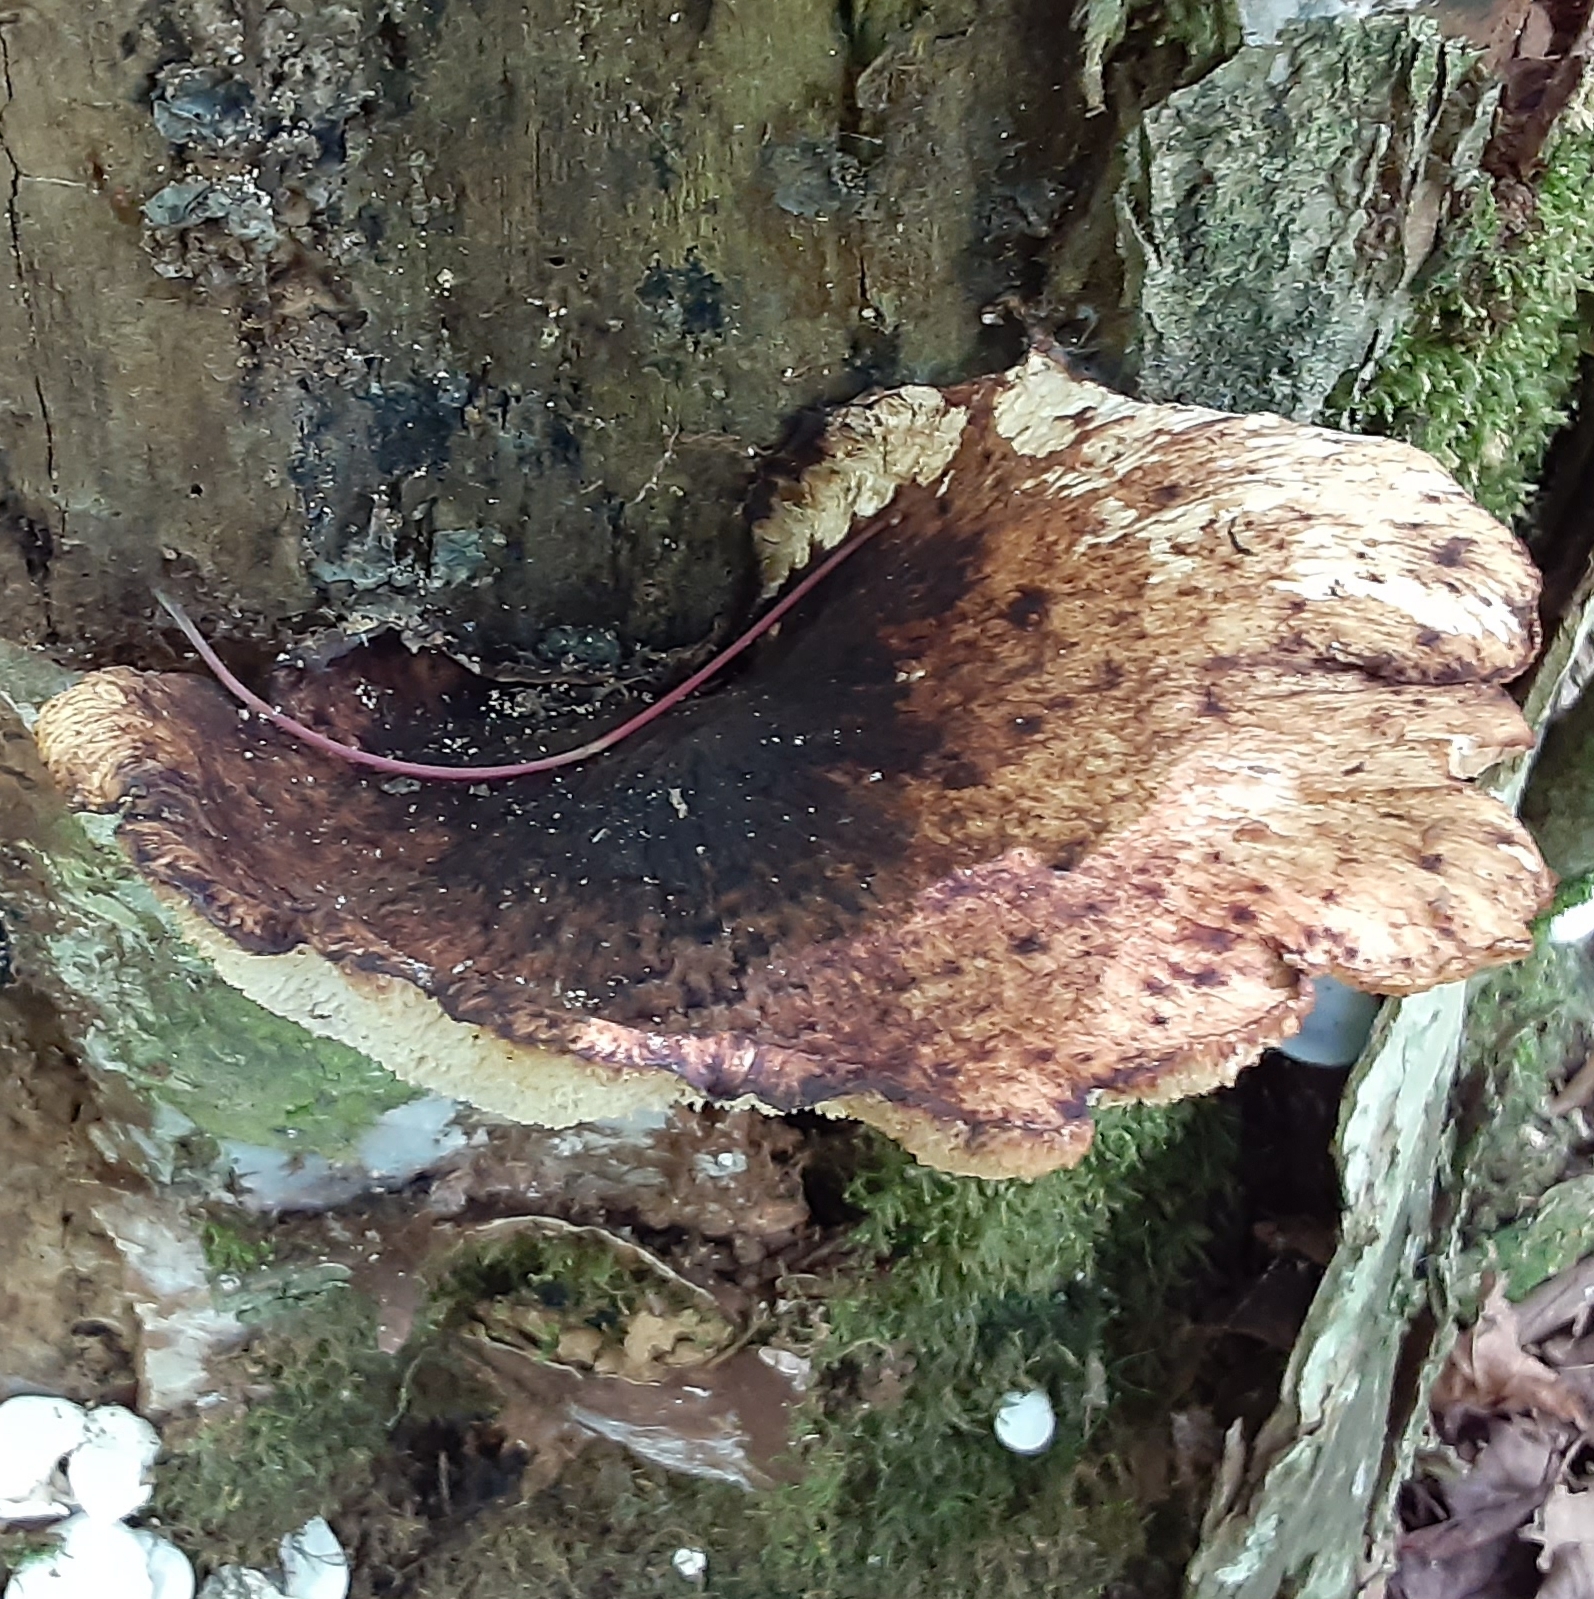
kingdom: Fungi
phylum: Basidiomycota
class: Agaricomycetes
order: Polyporales
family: Polyporaceae
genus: Cerioporus
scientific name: Cerioporus squamosus
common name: Dryad's saddle
